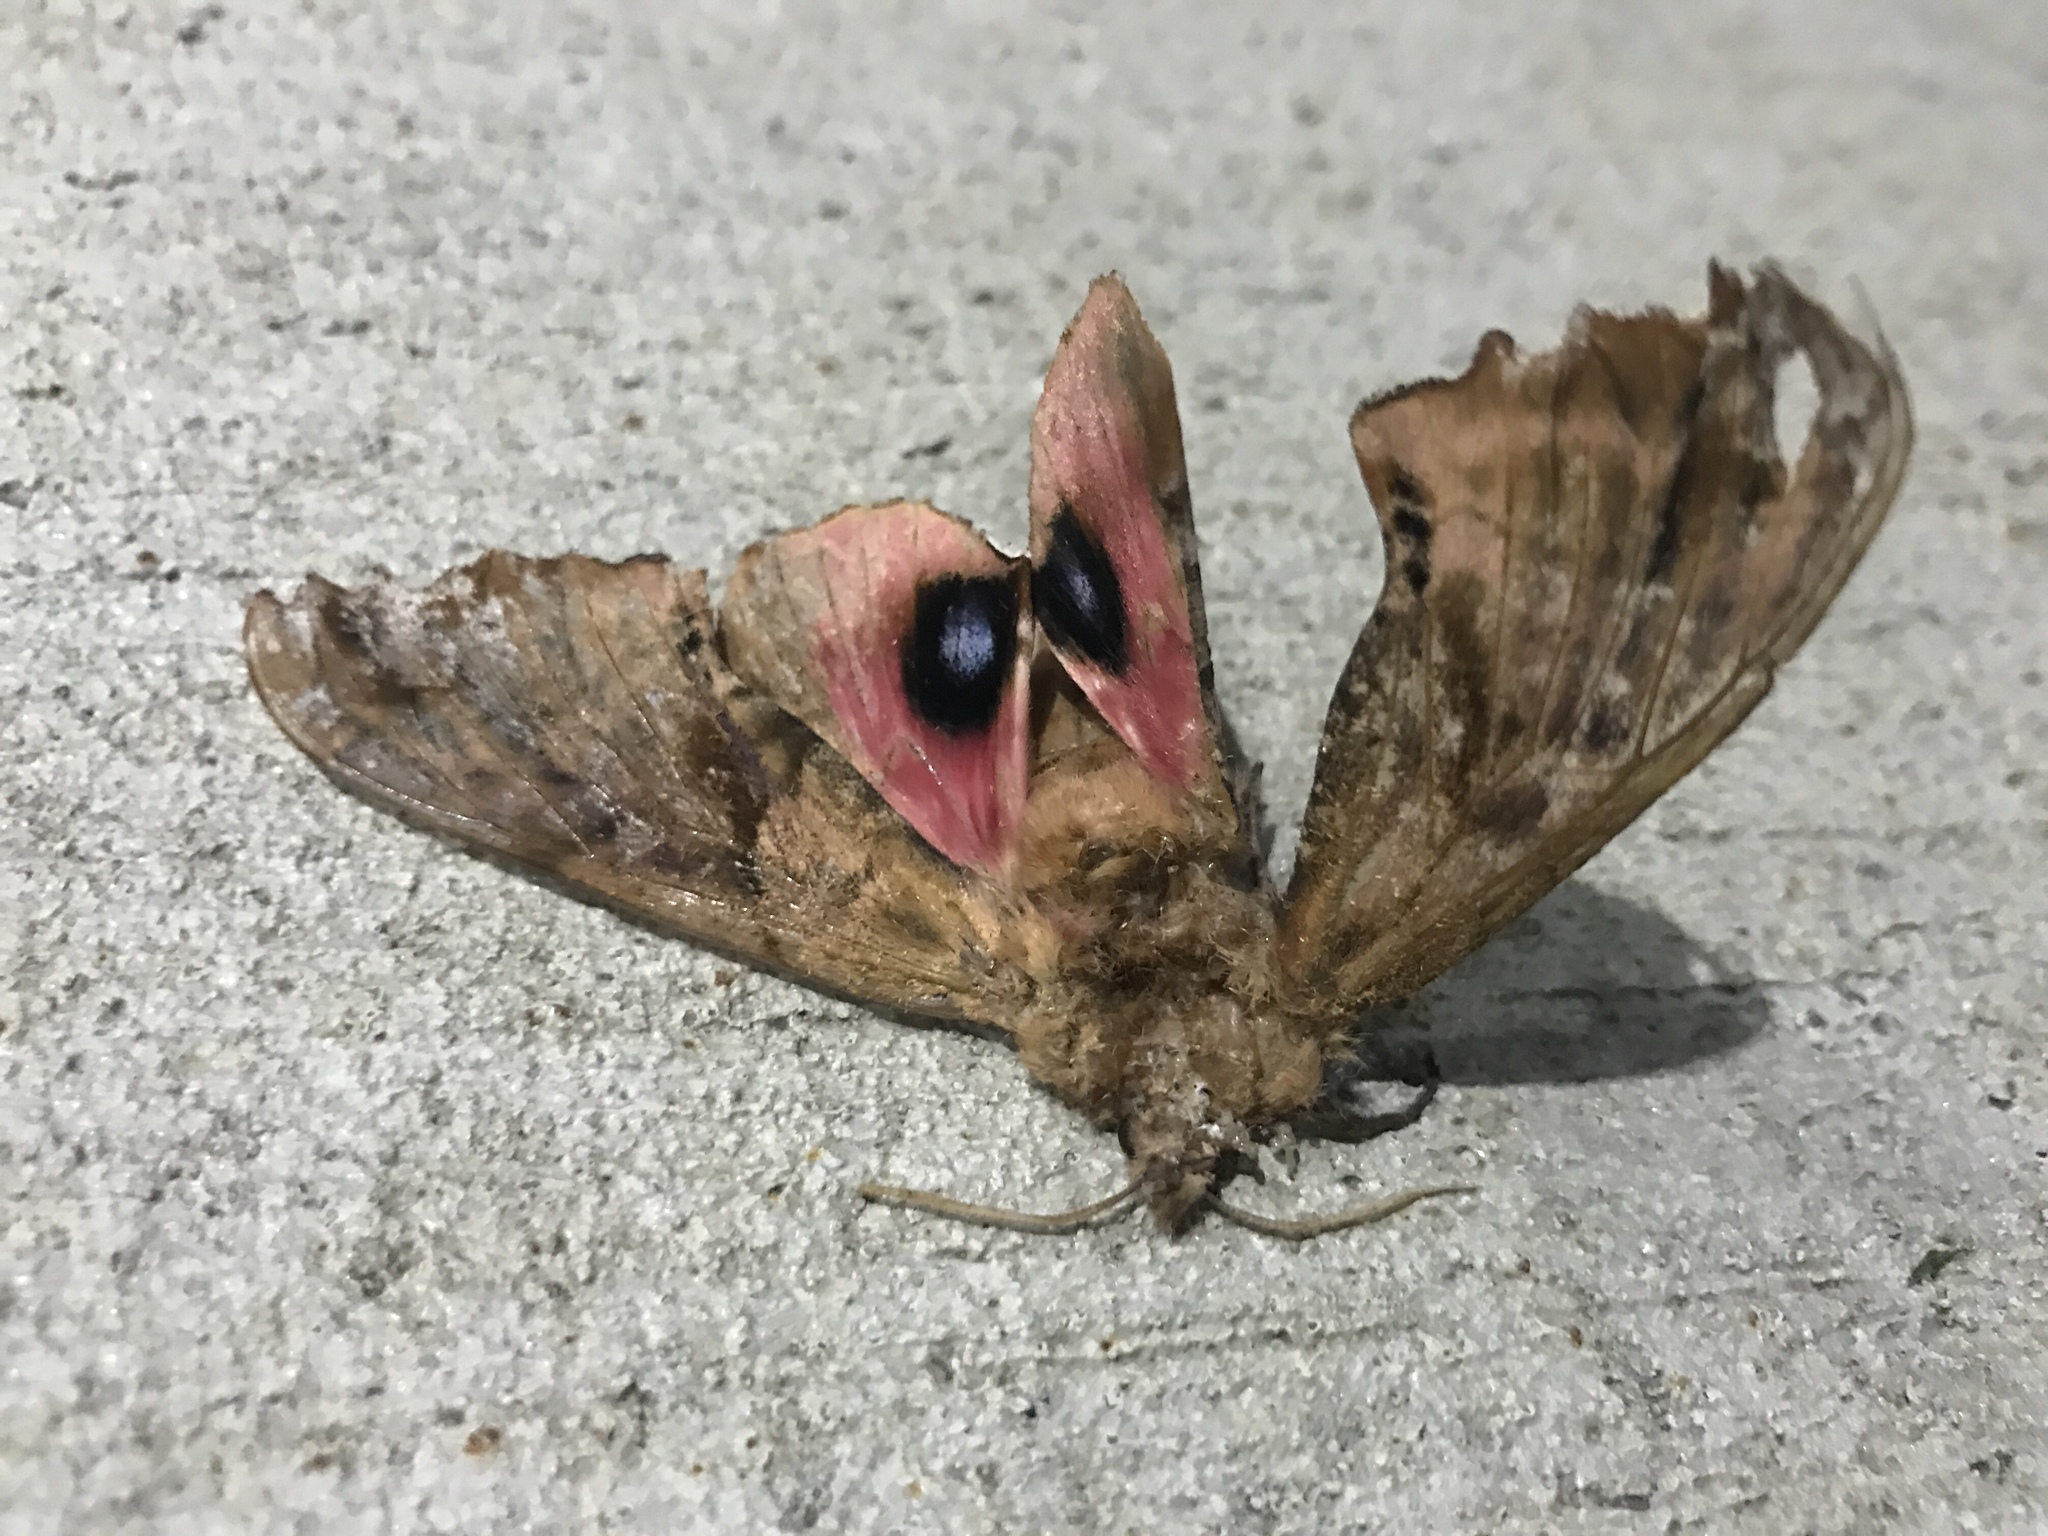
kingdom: Animalia
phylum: Arthropoda
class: Insecta
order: Lepidoptera
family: Sphingidae
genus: Paonias
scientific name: Paonias excaecata
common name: Blind-eyed sphinx
